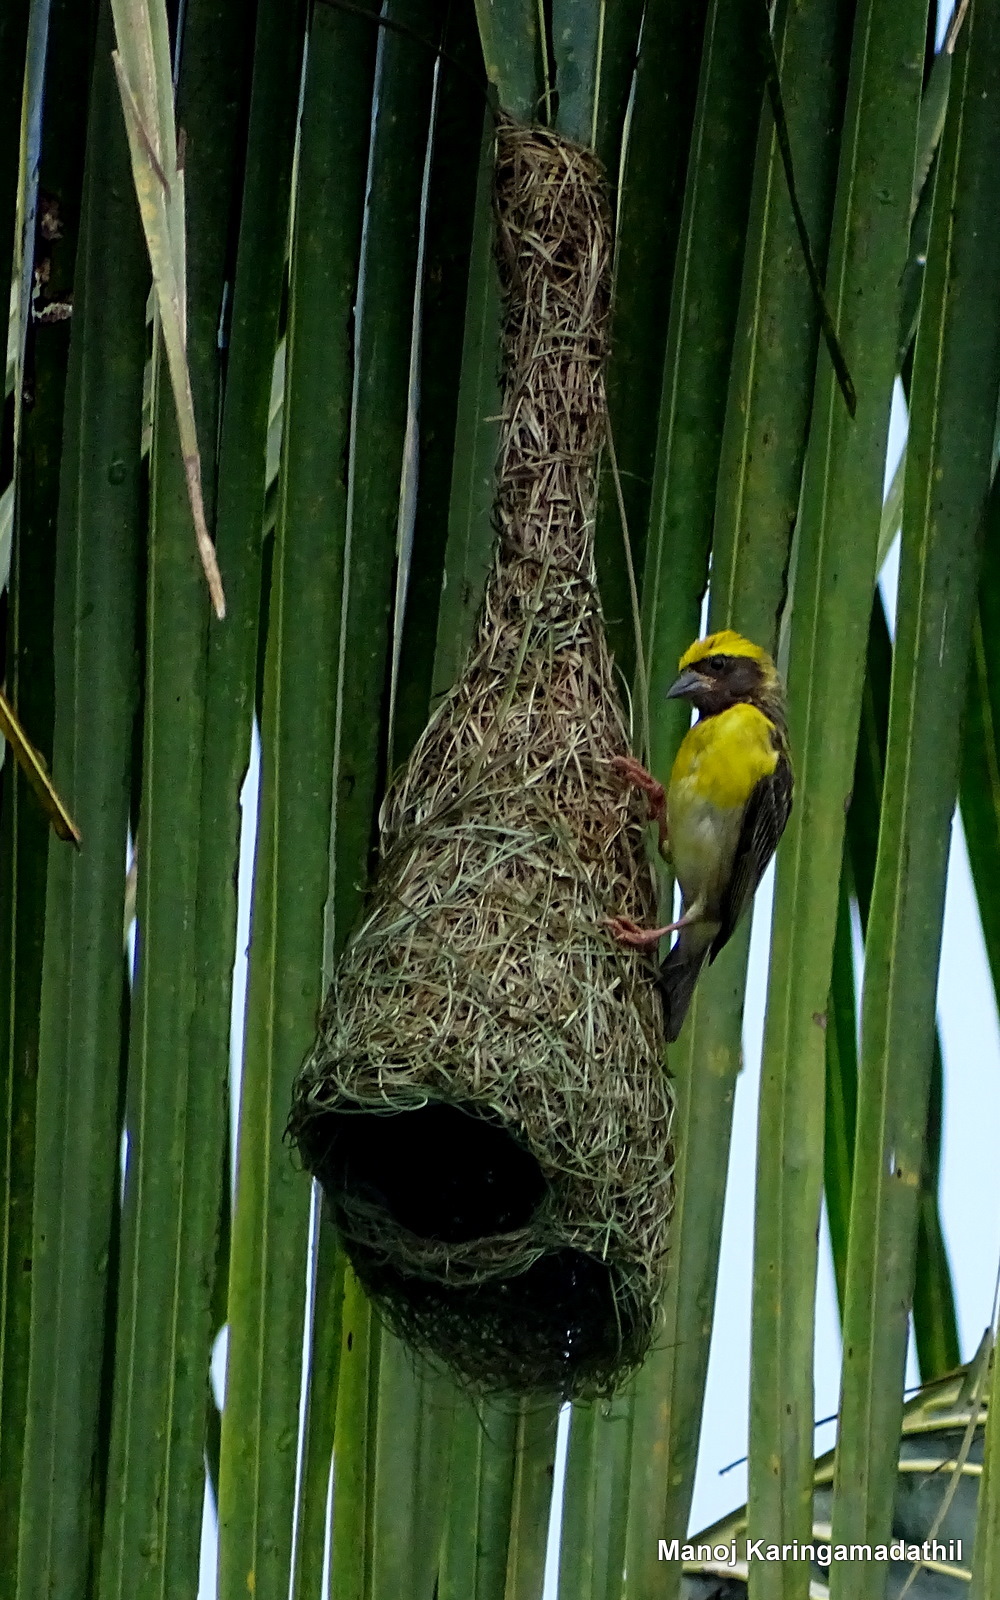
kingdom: Animalia
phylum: Chordata
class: Aves
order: Passeriformes
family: Ploceidae
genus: Ploceus
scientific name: Ploceus philippinus
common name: Baya weaver
